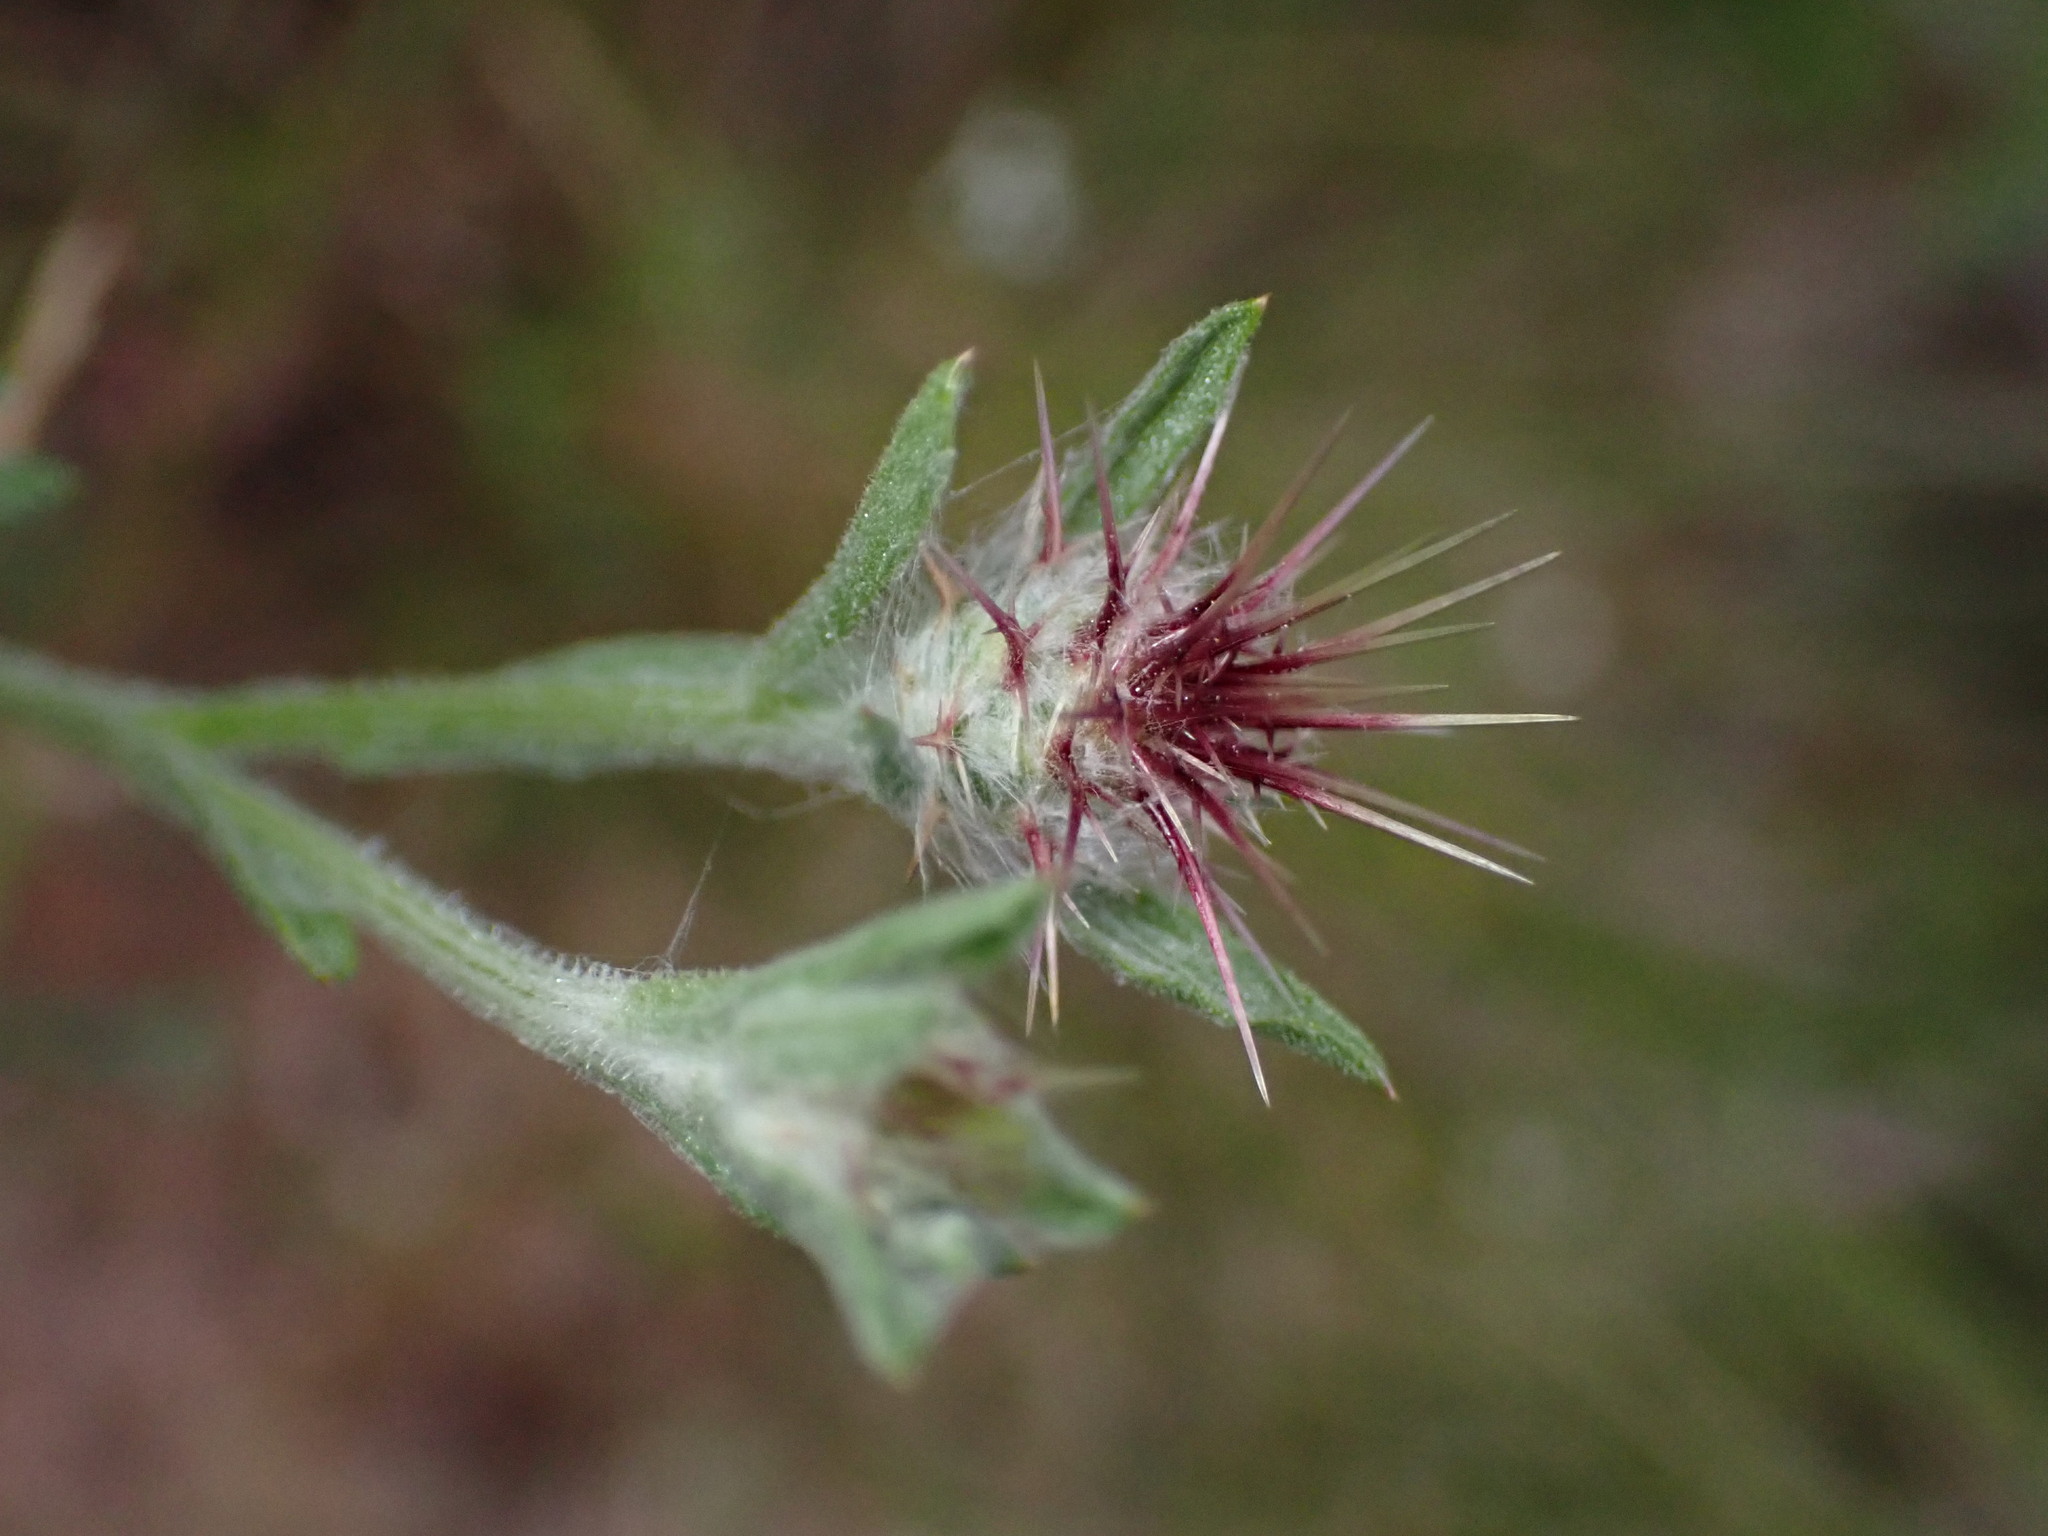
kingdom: Plantae
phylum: Tracheophyta
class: Magnoliopsida
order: Asterales
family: Asteraceae
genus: Centaurea
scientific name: Centaurea melitensis
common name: Maltese star-thistle
